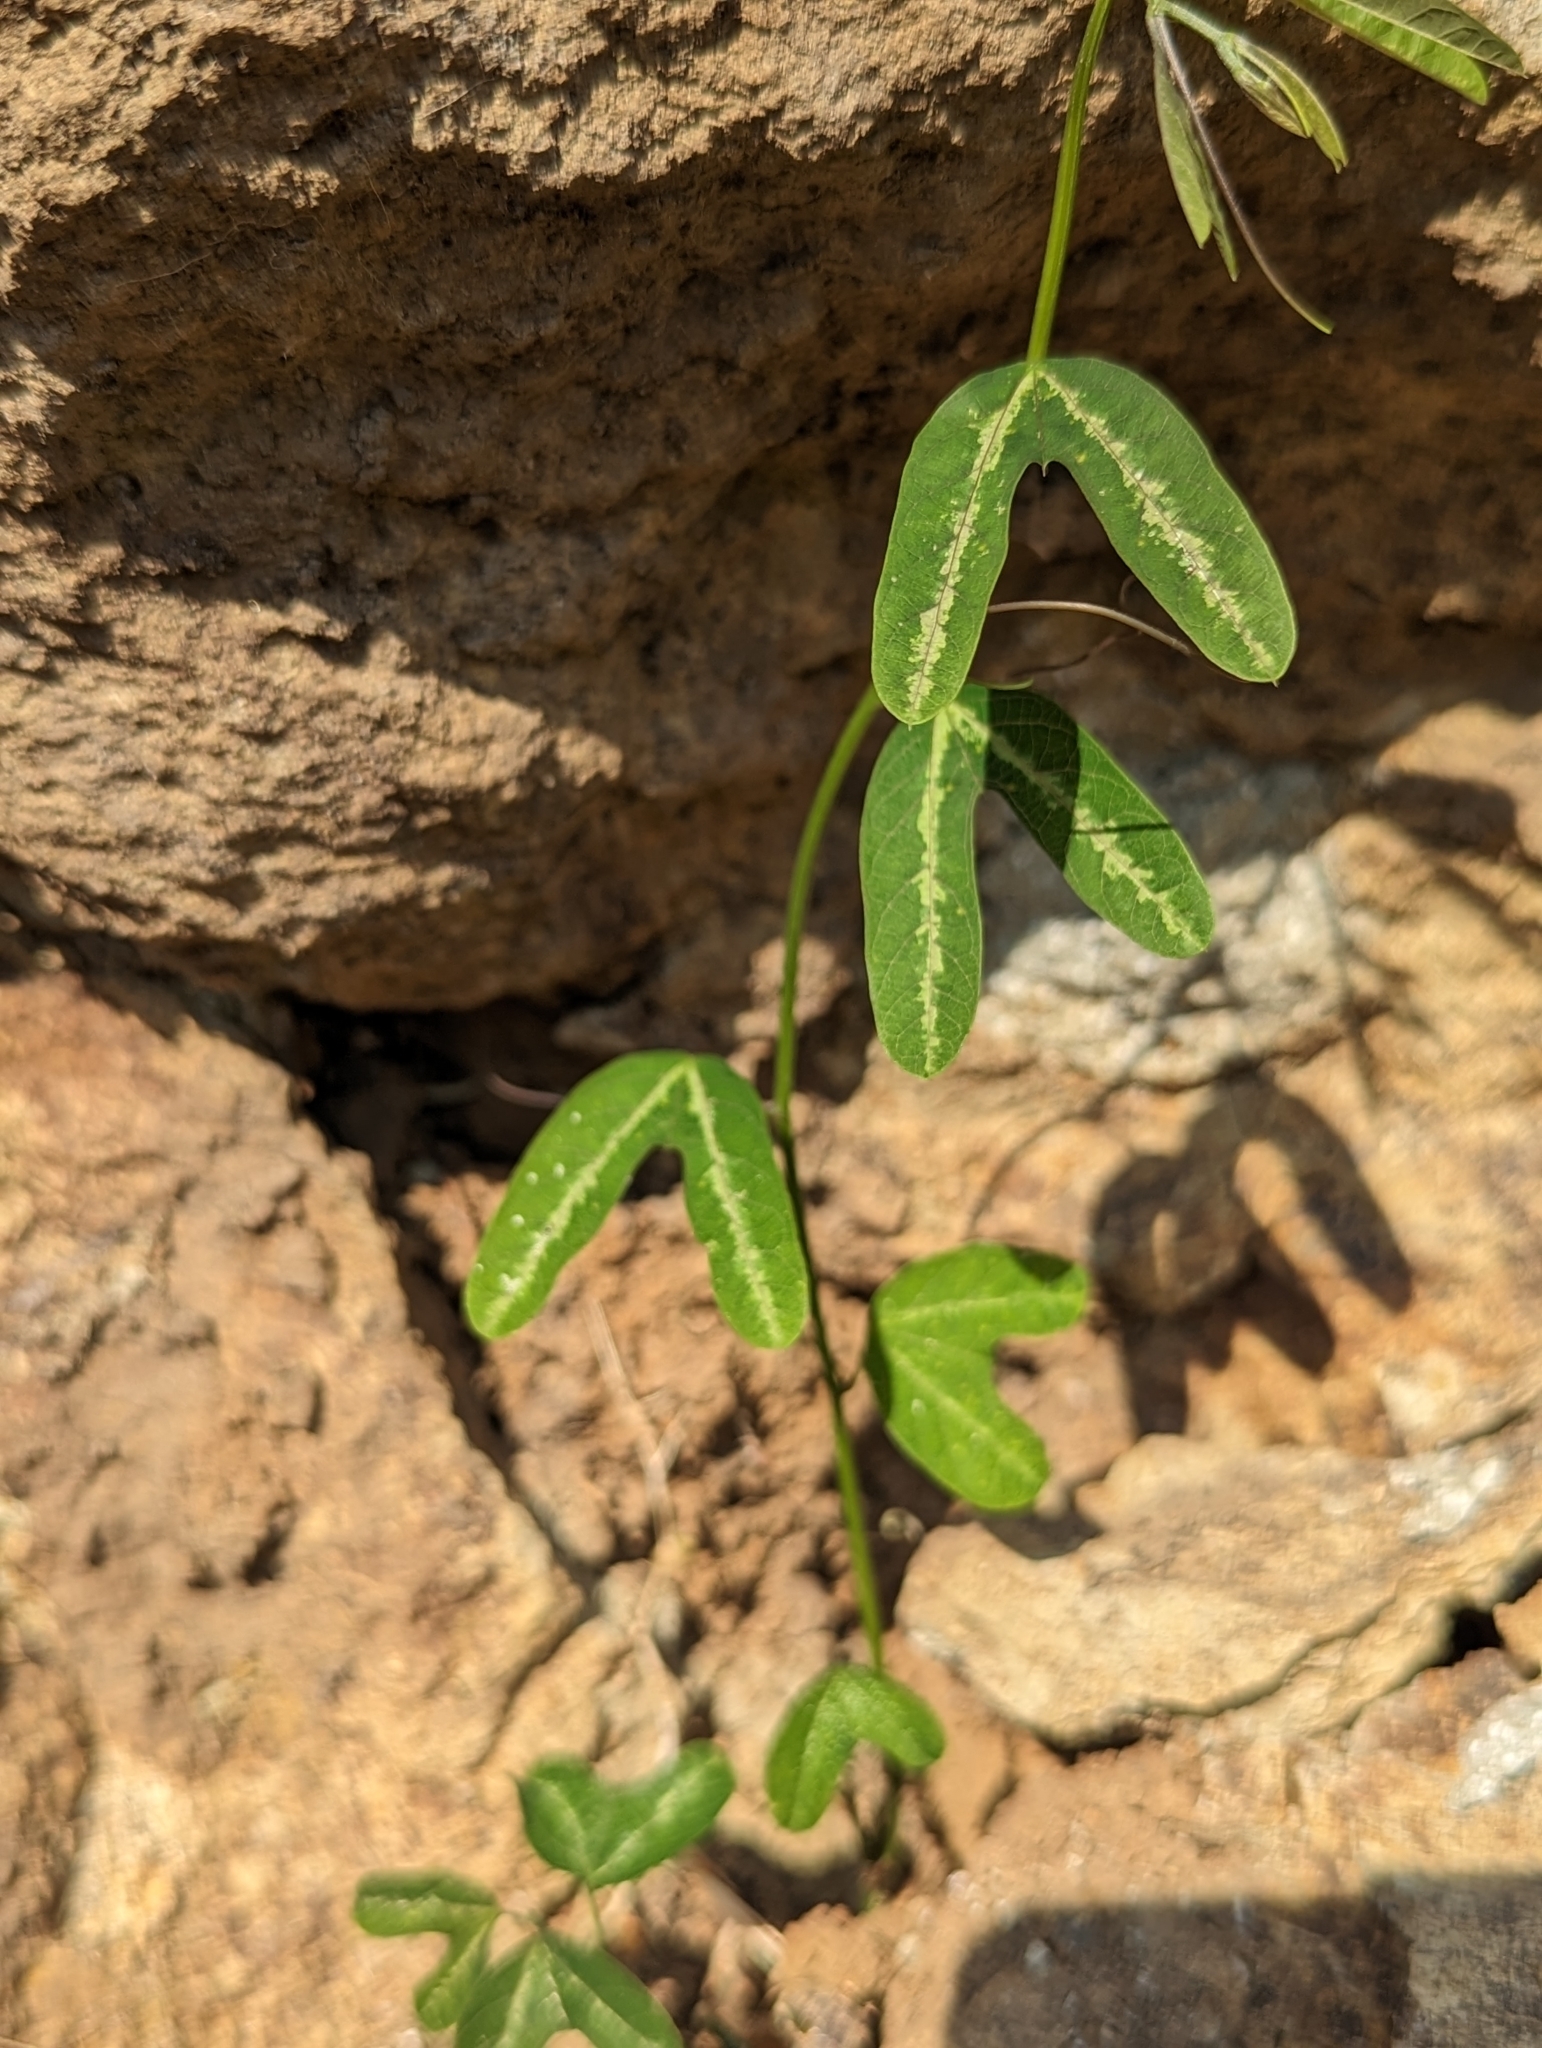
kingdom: Plantae
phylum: Tracheophyta
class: Magnoliopsida
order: Malpighiales
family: Passifloraceae
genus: Passiflora
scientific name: Passiflora ornithoura
